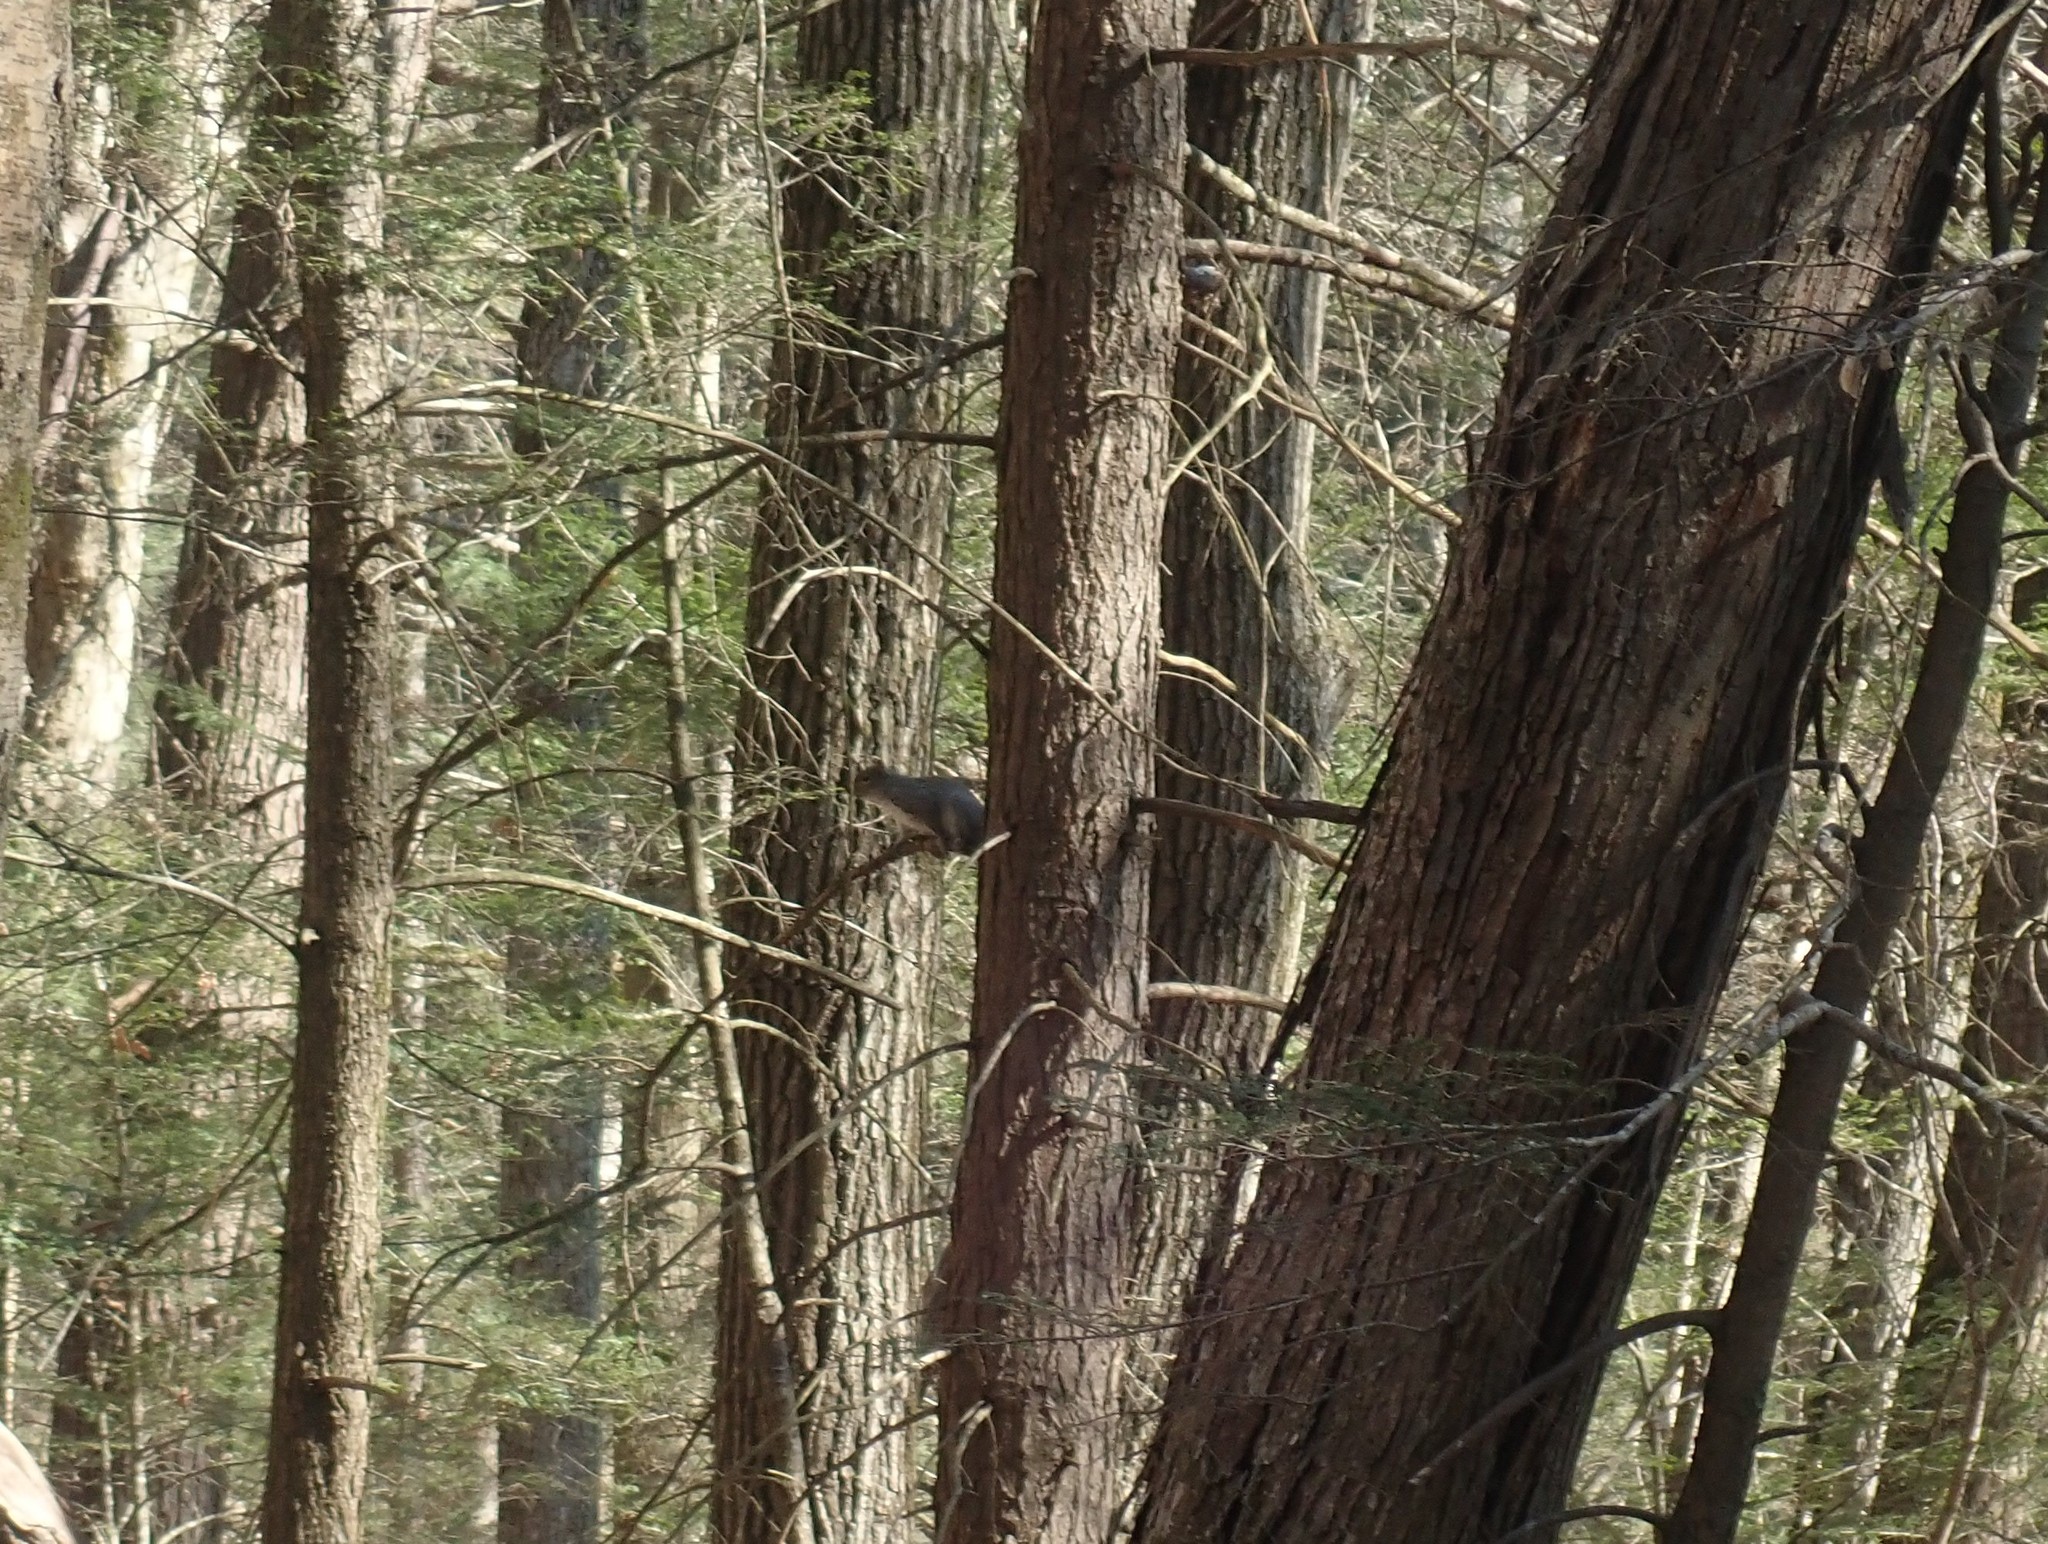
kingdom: Animalia
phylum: Chordata
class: Mammalia
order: Rodentia
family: Sciuridae
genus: Sciurus
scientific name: Sciurus carolinensis
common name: Eastern gray squirrel
